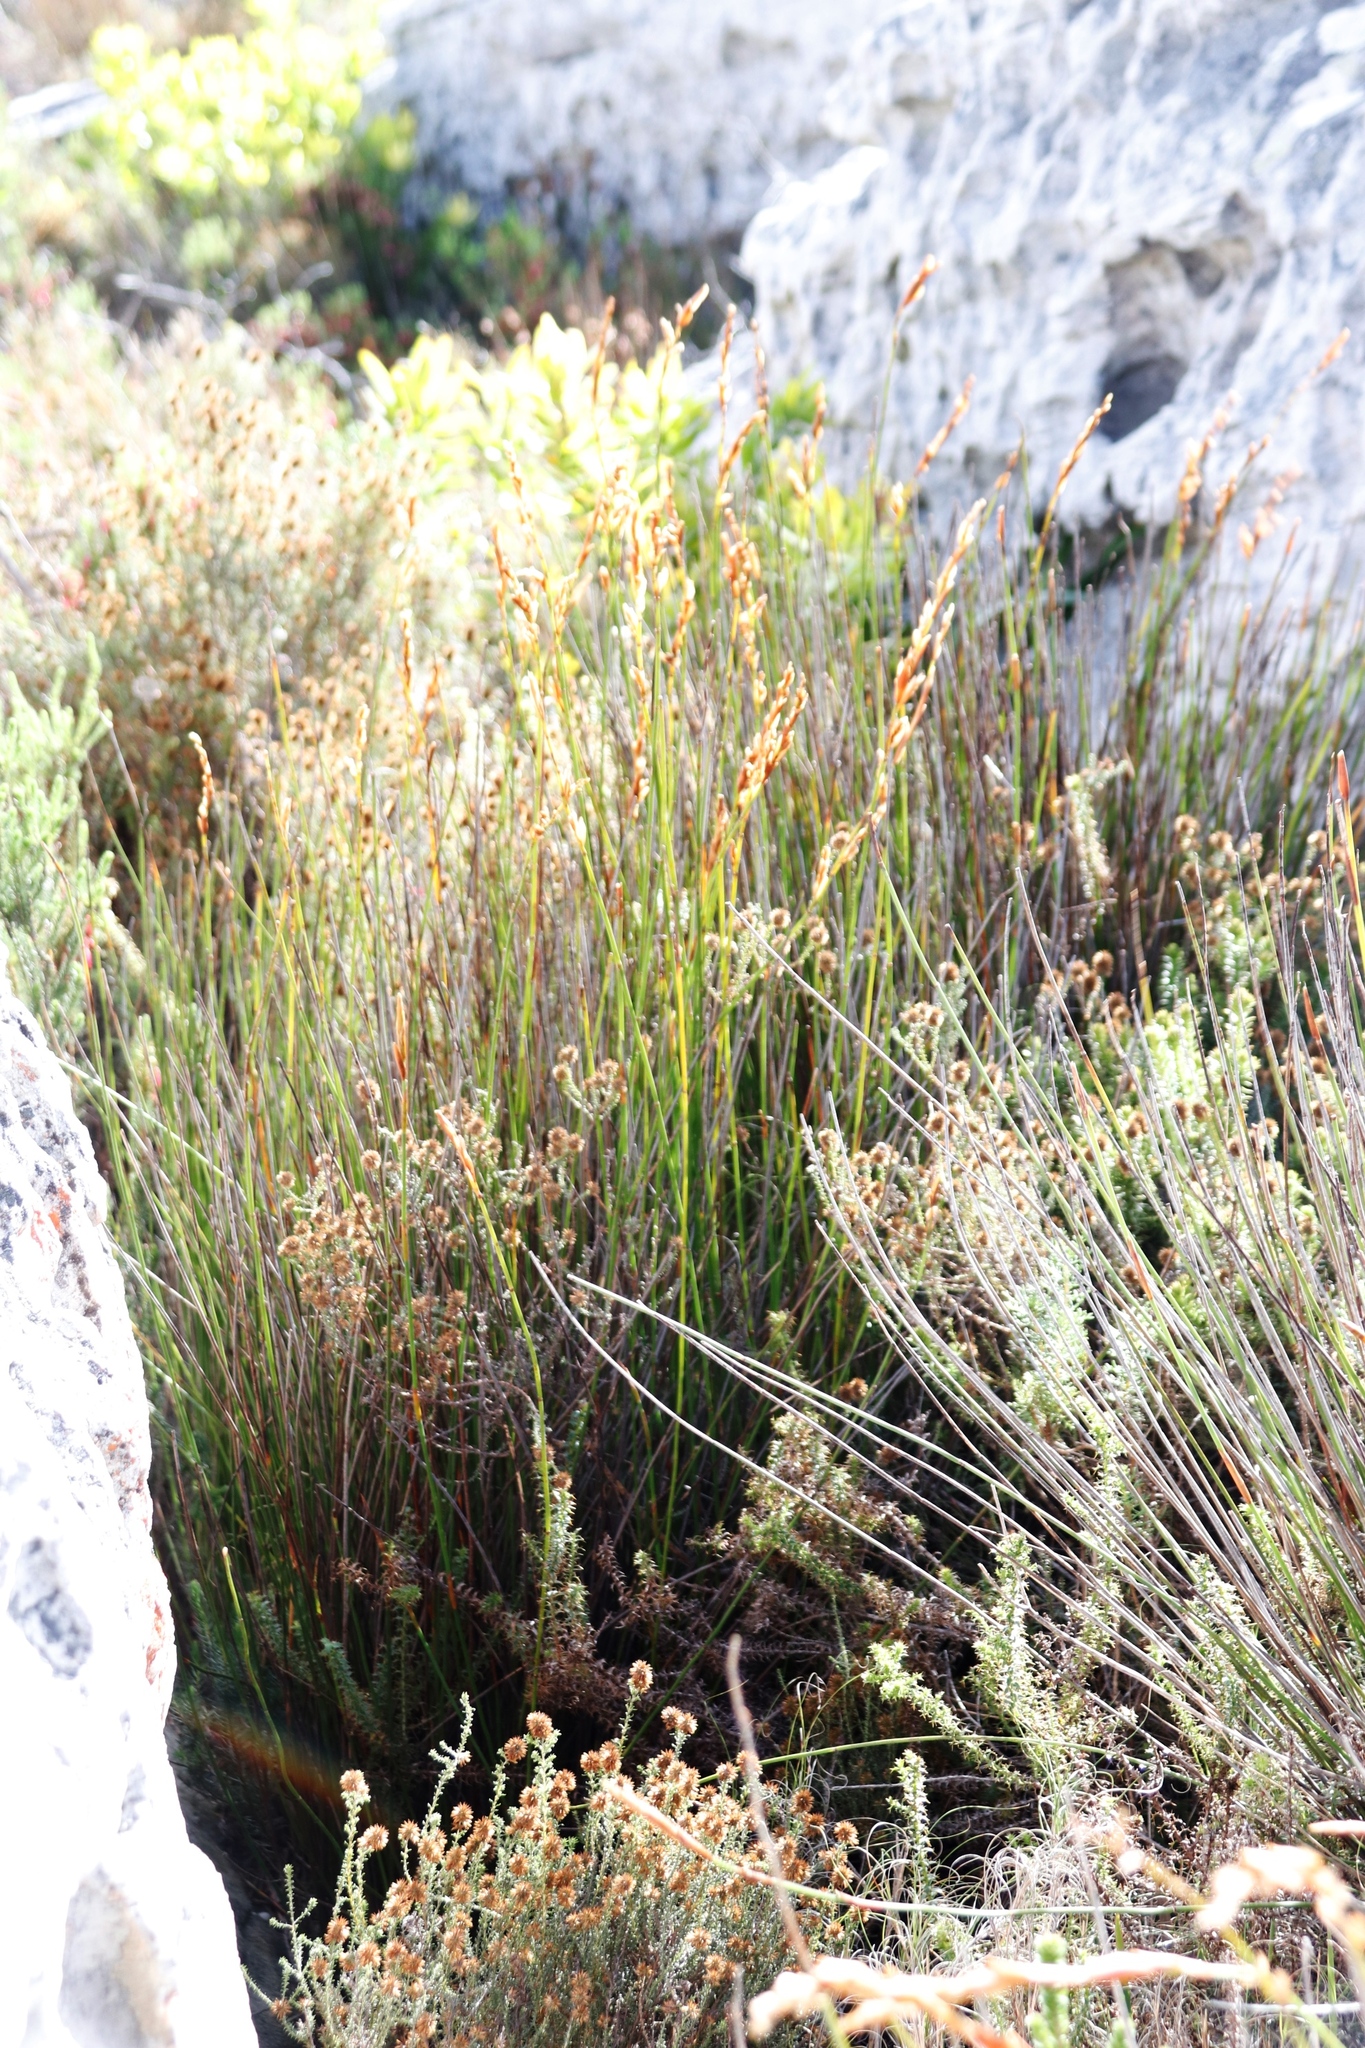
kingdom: Plantae
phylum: Tracheophyta
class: Liliopsida
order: Poales
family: Restionaceae
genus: Elegia
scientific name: Elegia racemosa
